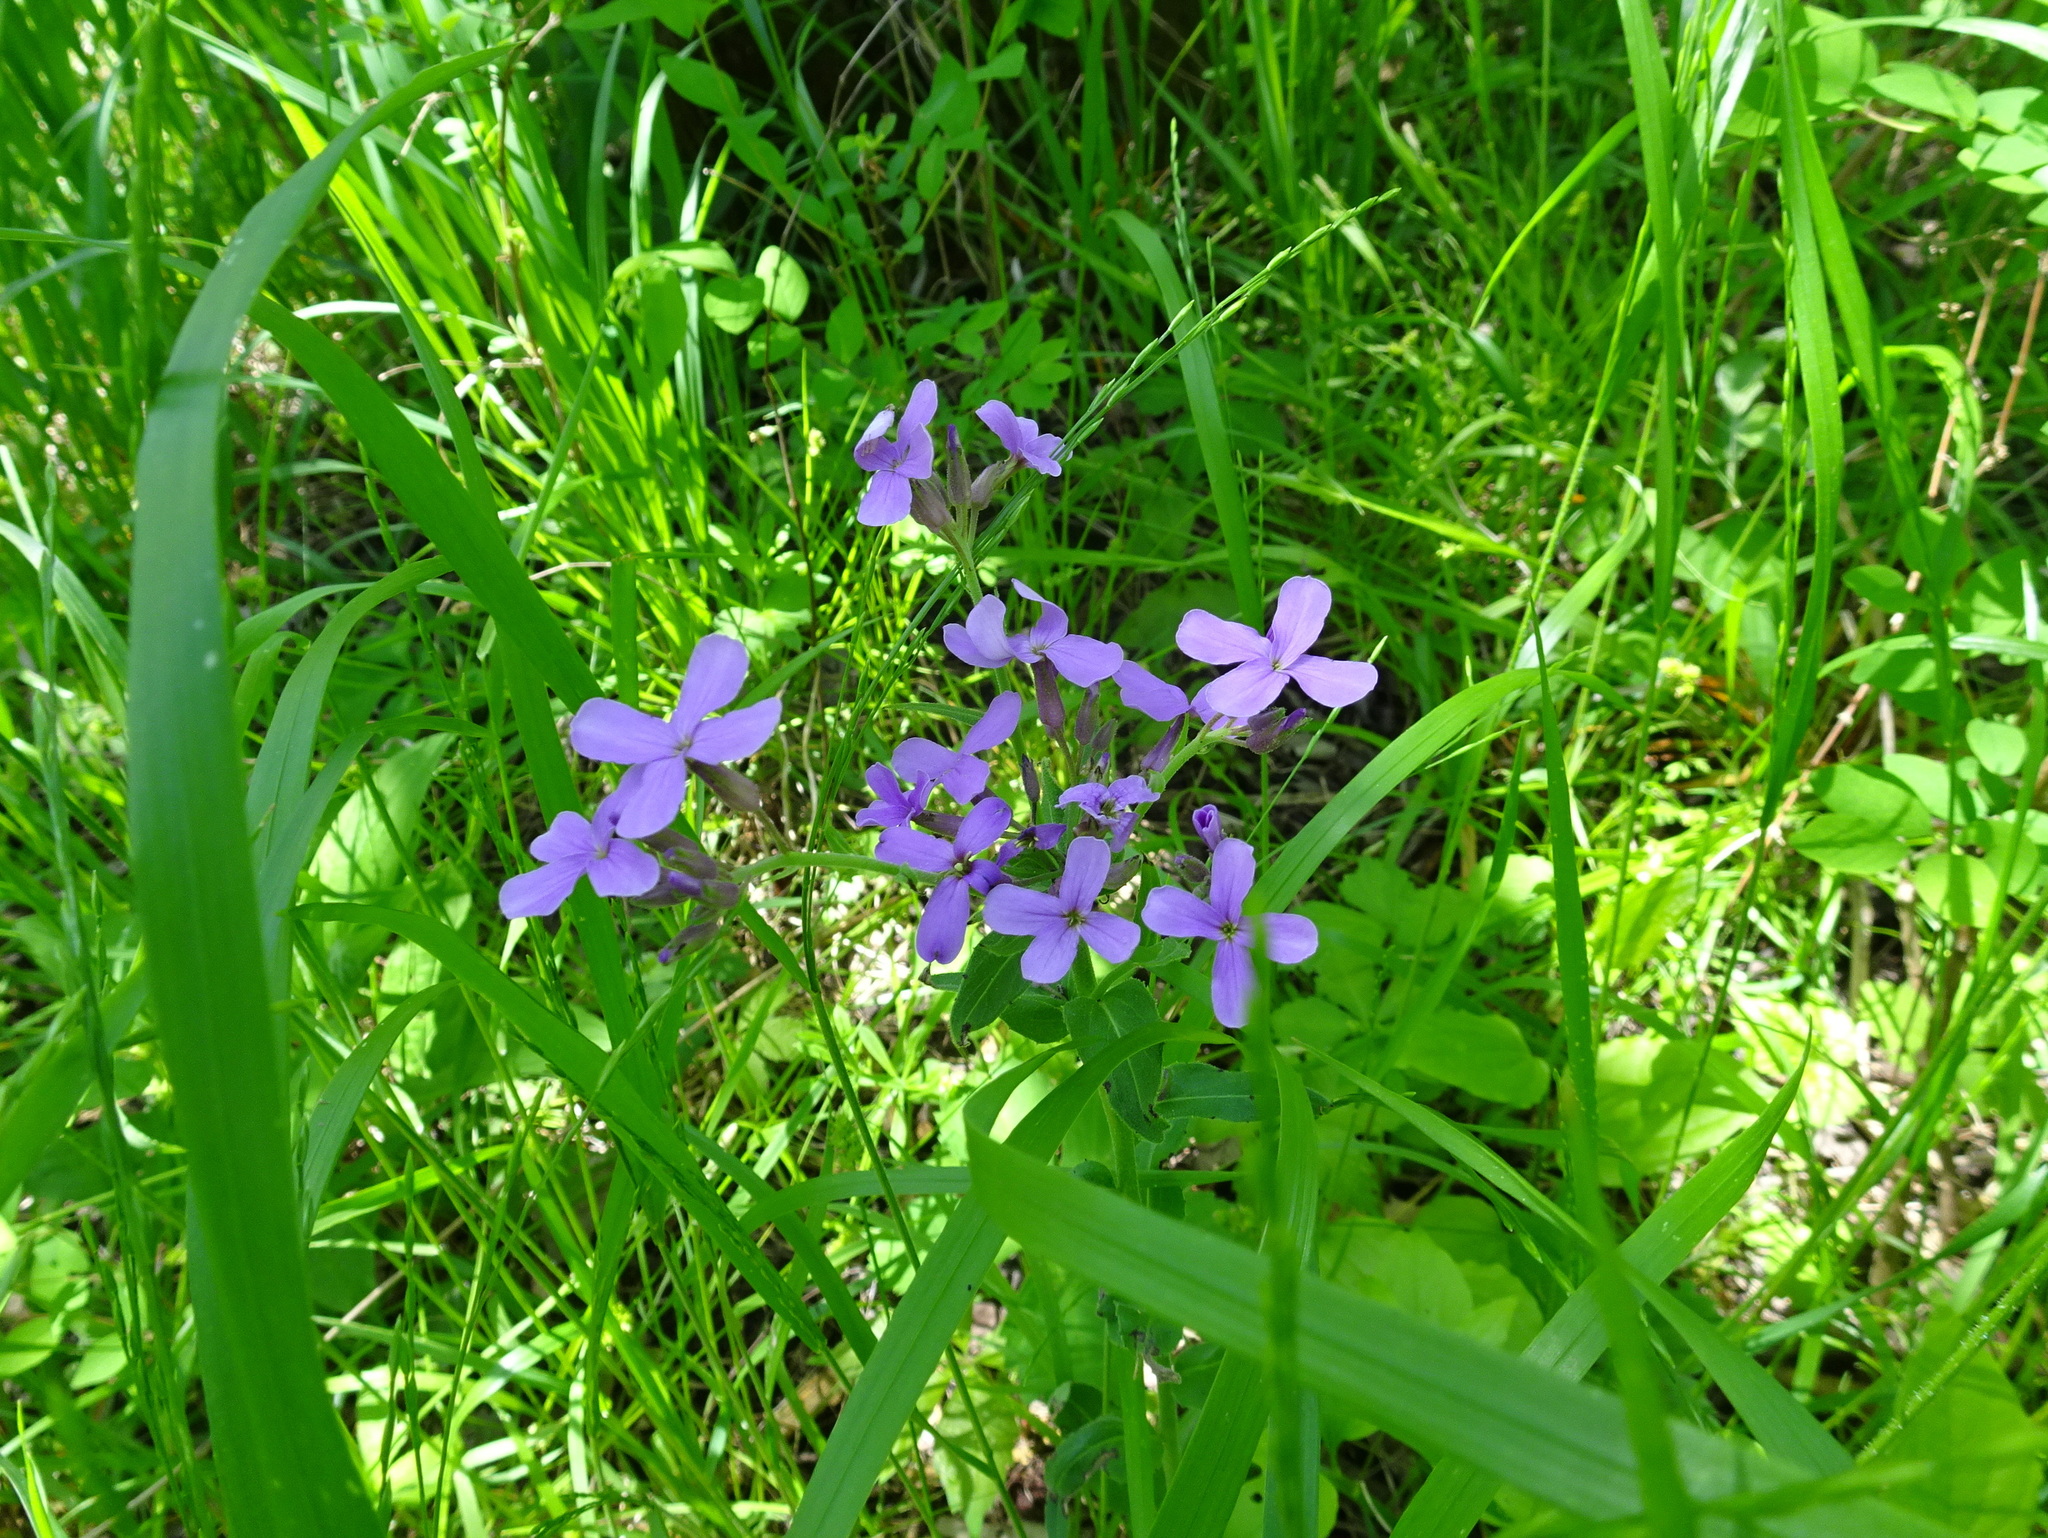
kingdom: Plantae
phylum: Tracheophyta
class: Magnoliopsida
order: Brassicales
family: Brassicaceae
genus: Hesperis
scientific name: Hesperis matronalis
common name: Dame's-violet
